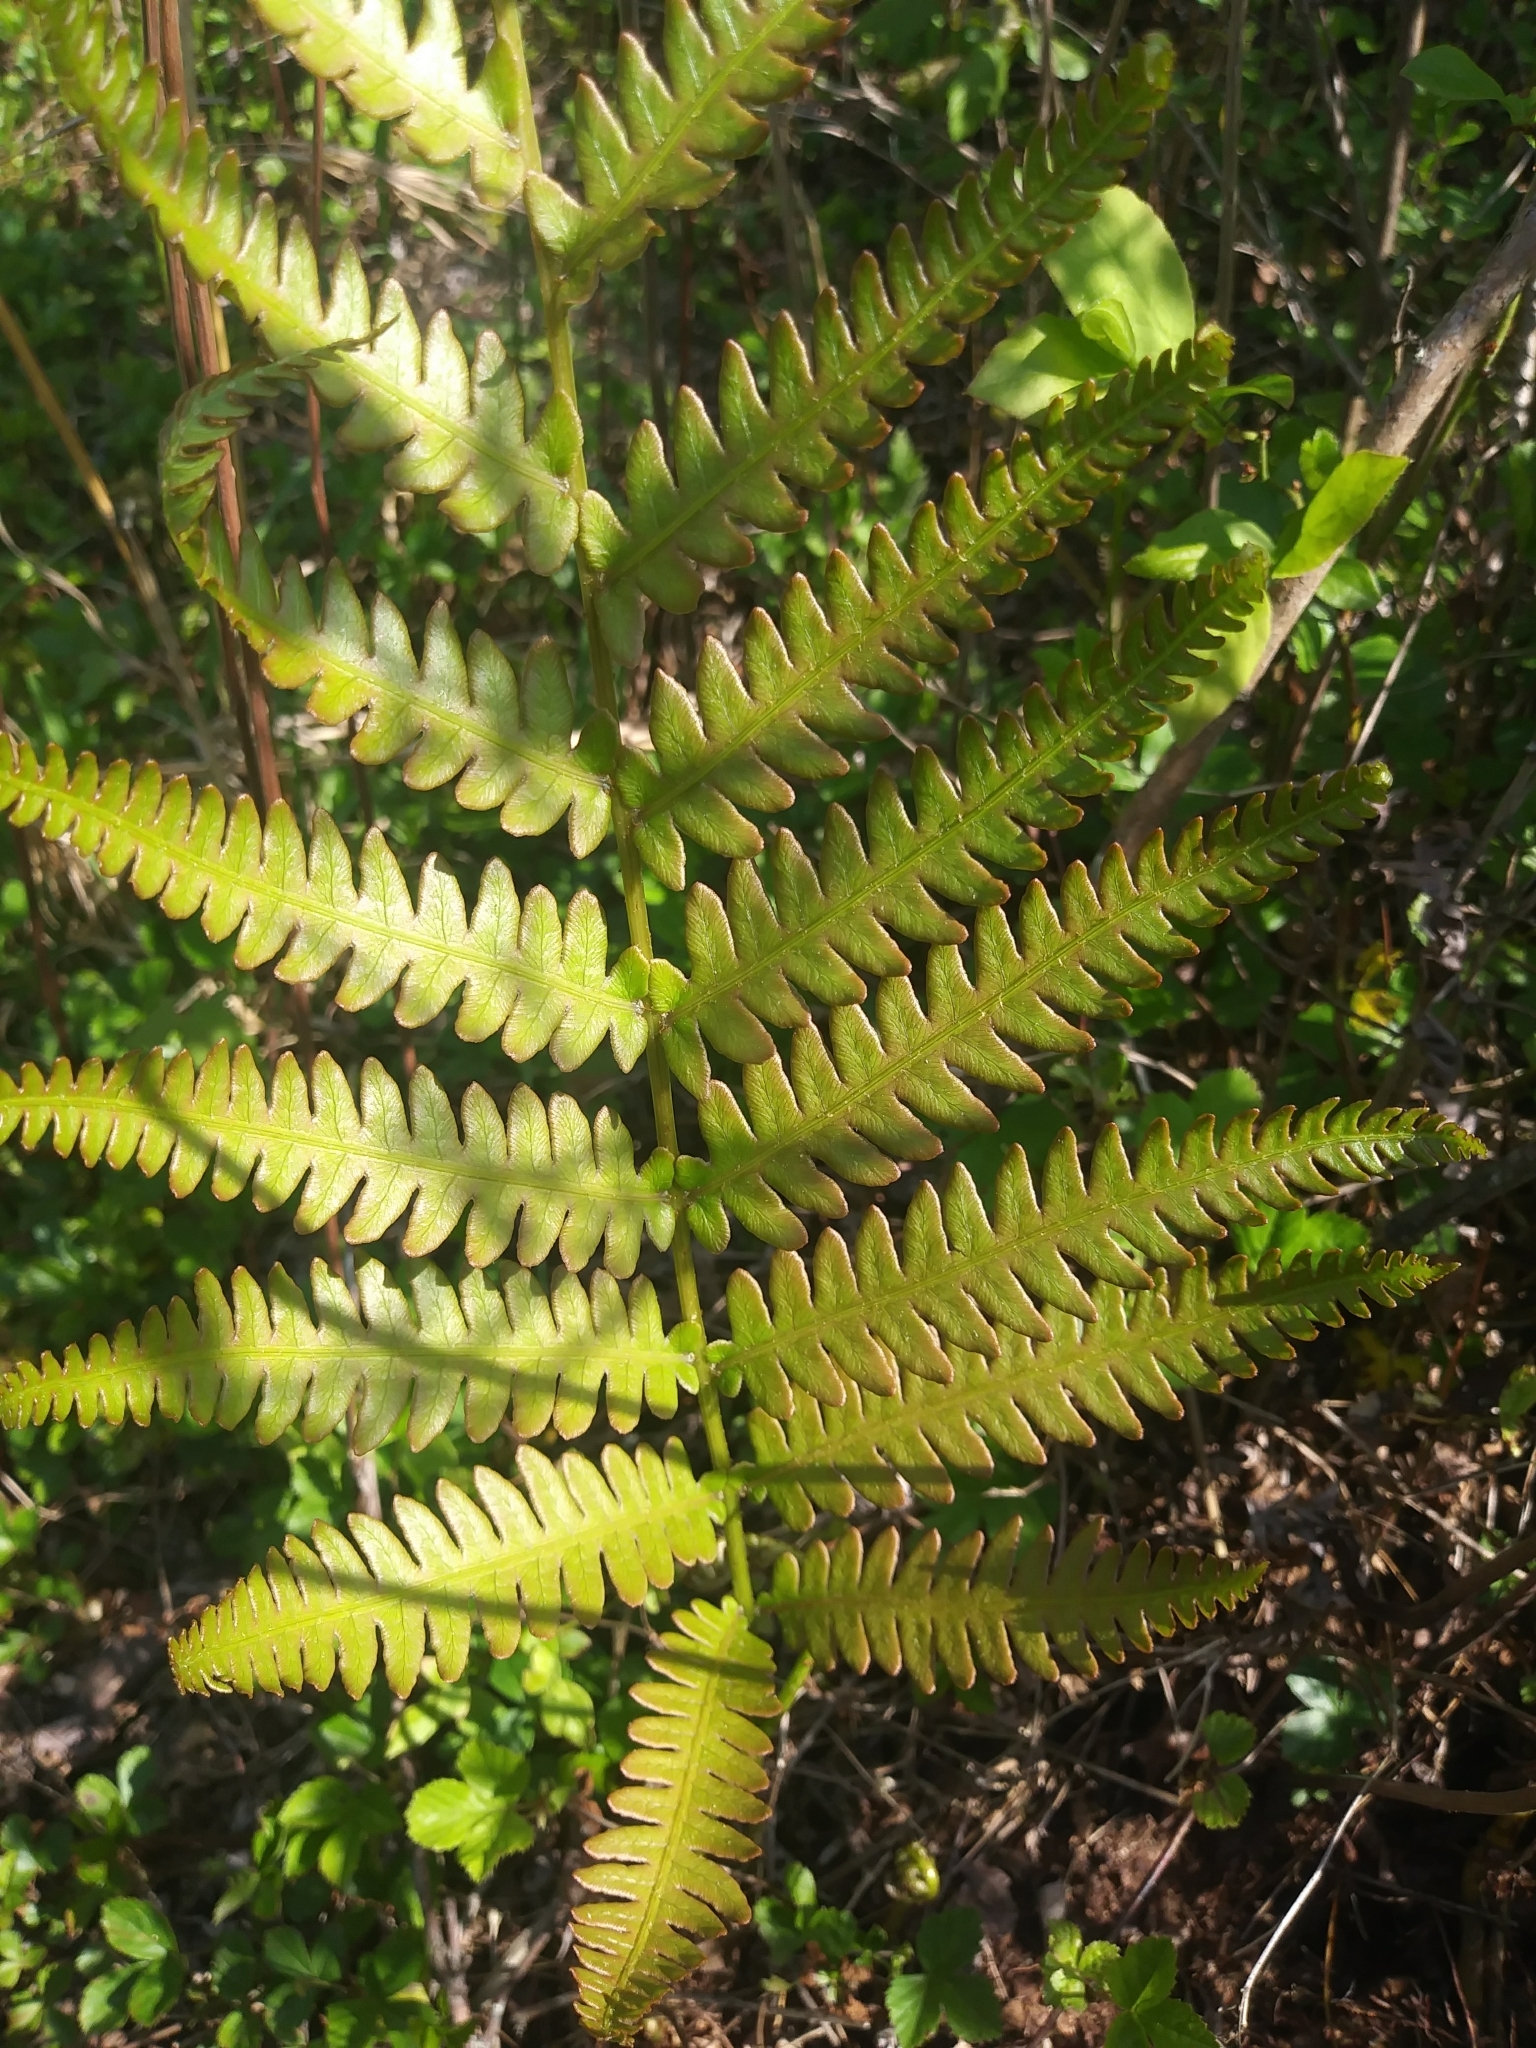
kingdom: Plantae
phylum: Tracheophyta
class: Polypodiopsida
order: Polypodiales
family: Blechnaceae
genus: Anchistea
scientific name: Anchistea virginica
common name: Virginia chain fern
